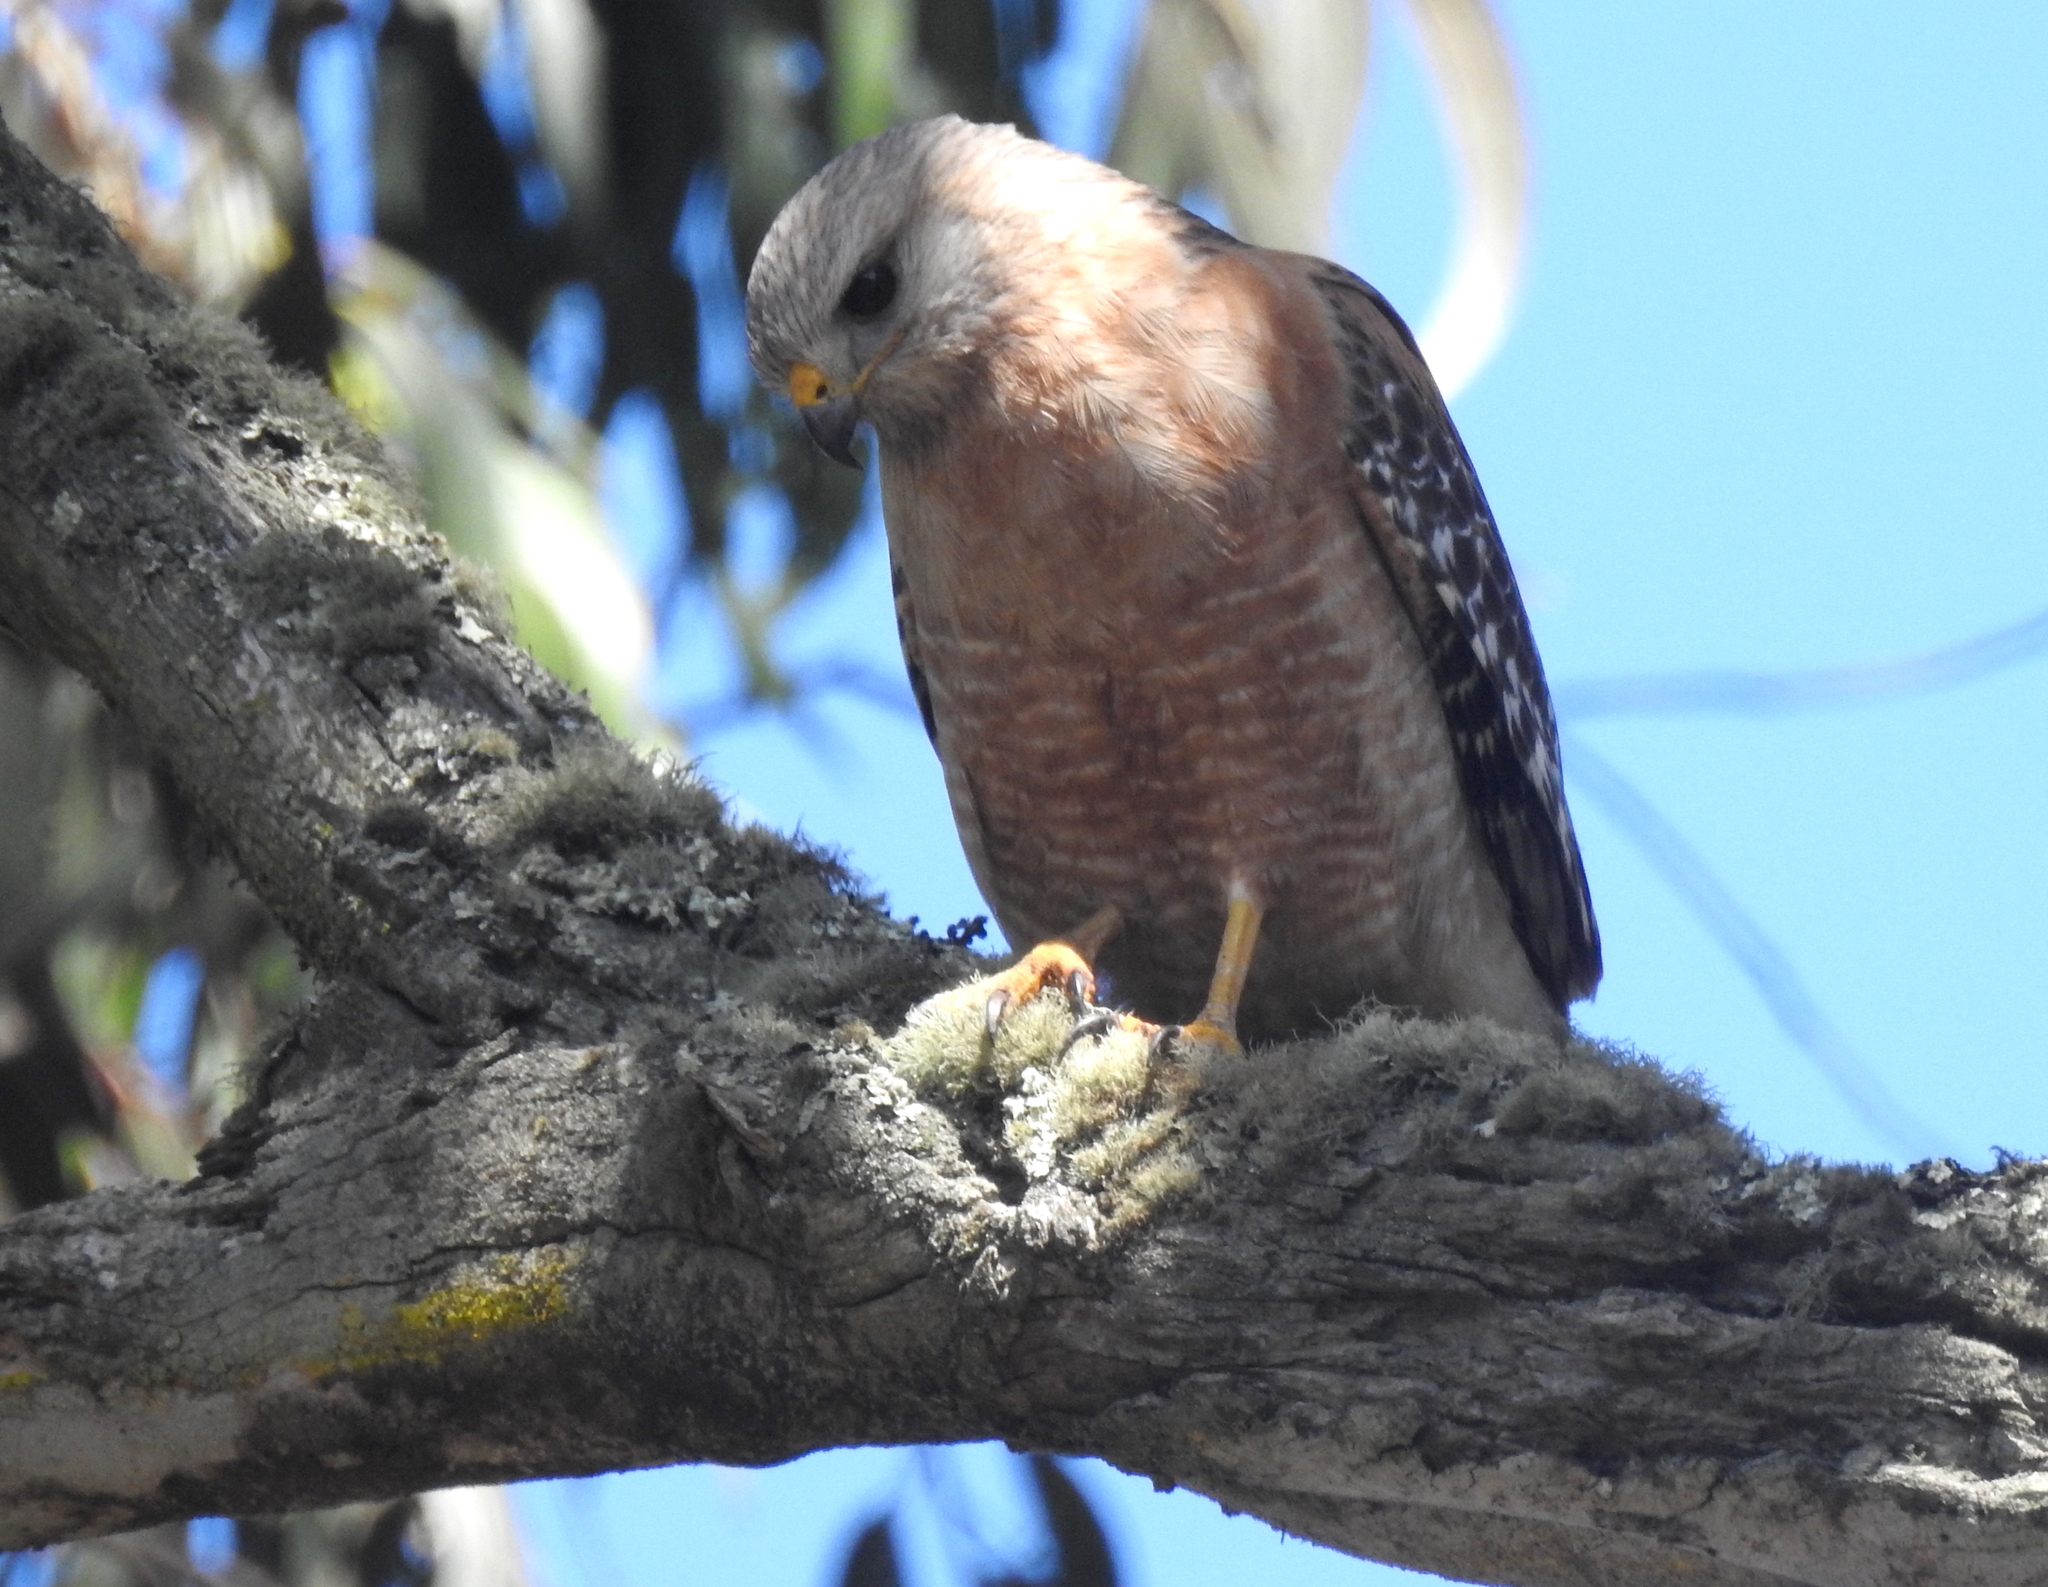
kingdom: Animalia
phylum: Chordata
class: Aves
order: Accipitriformes
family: Accipitridae
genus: Buteo
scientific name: Buteo lineatus
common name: Red-shouldered hawk
